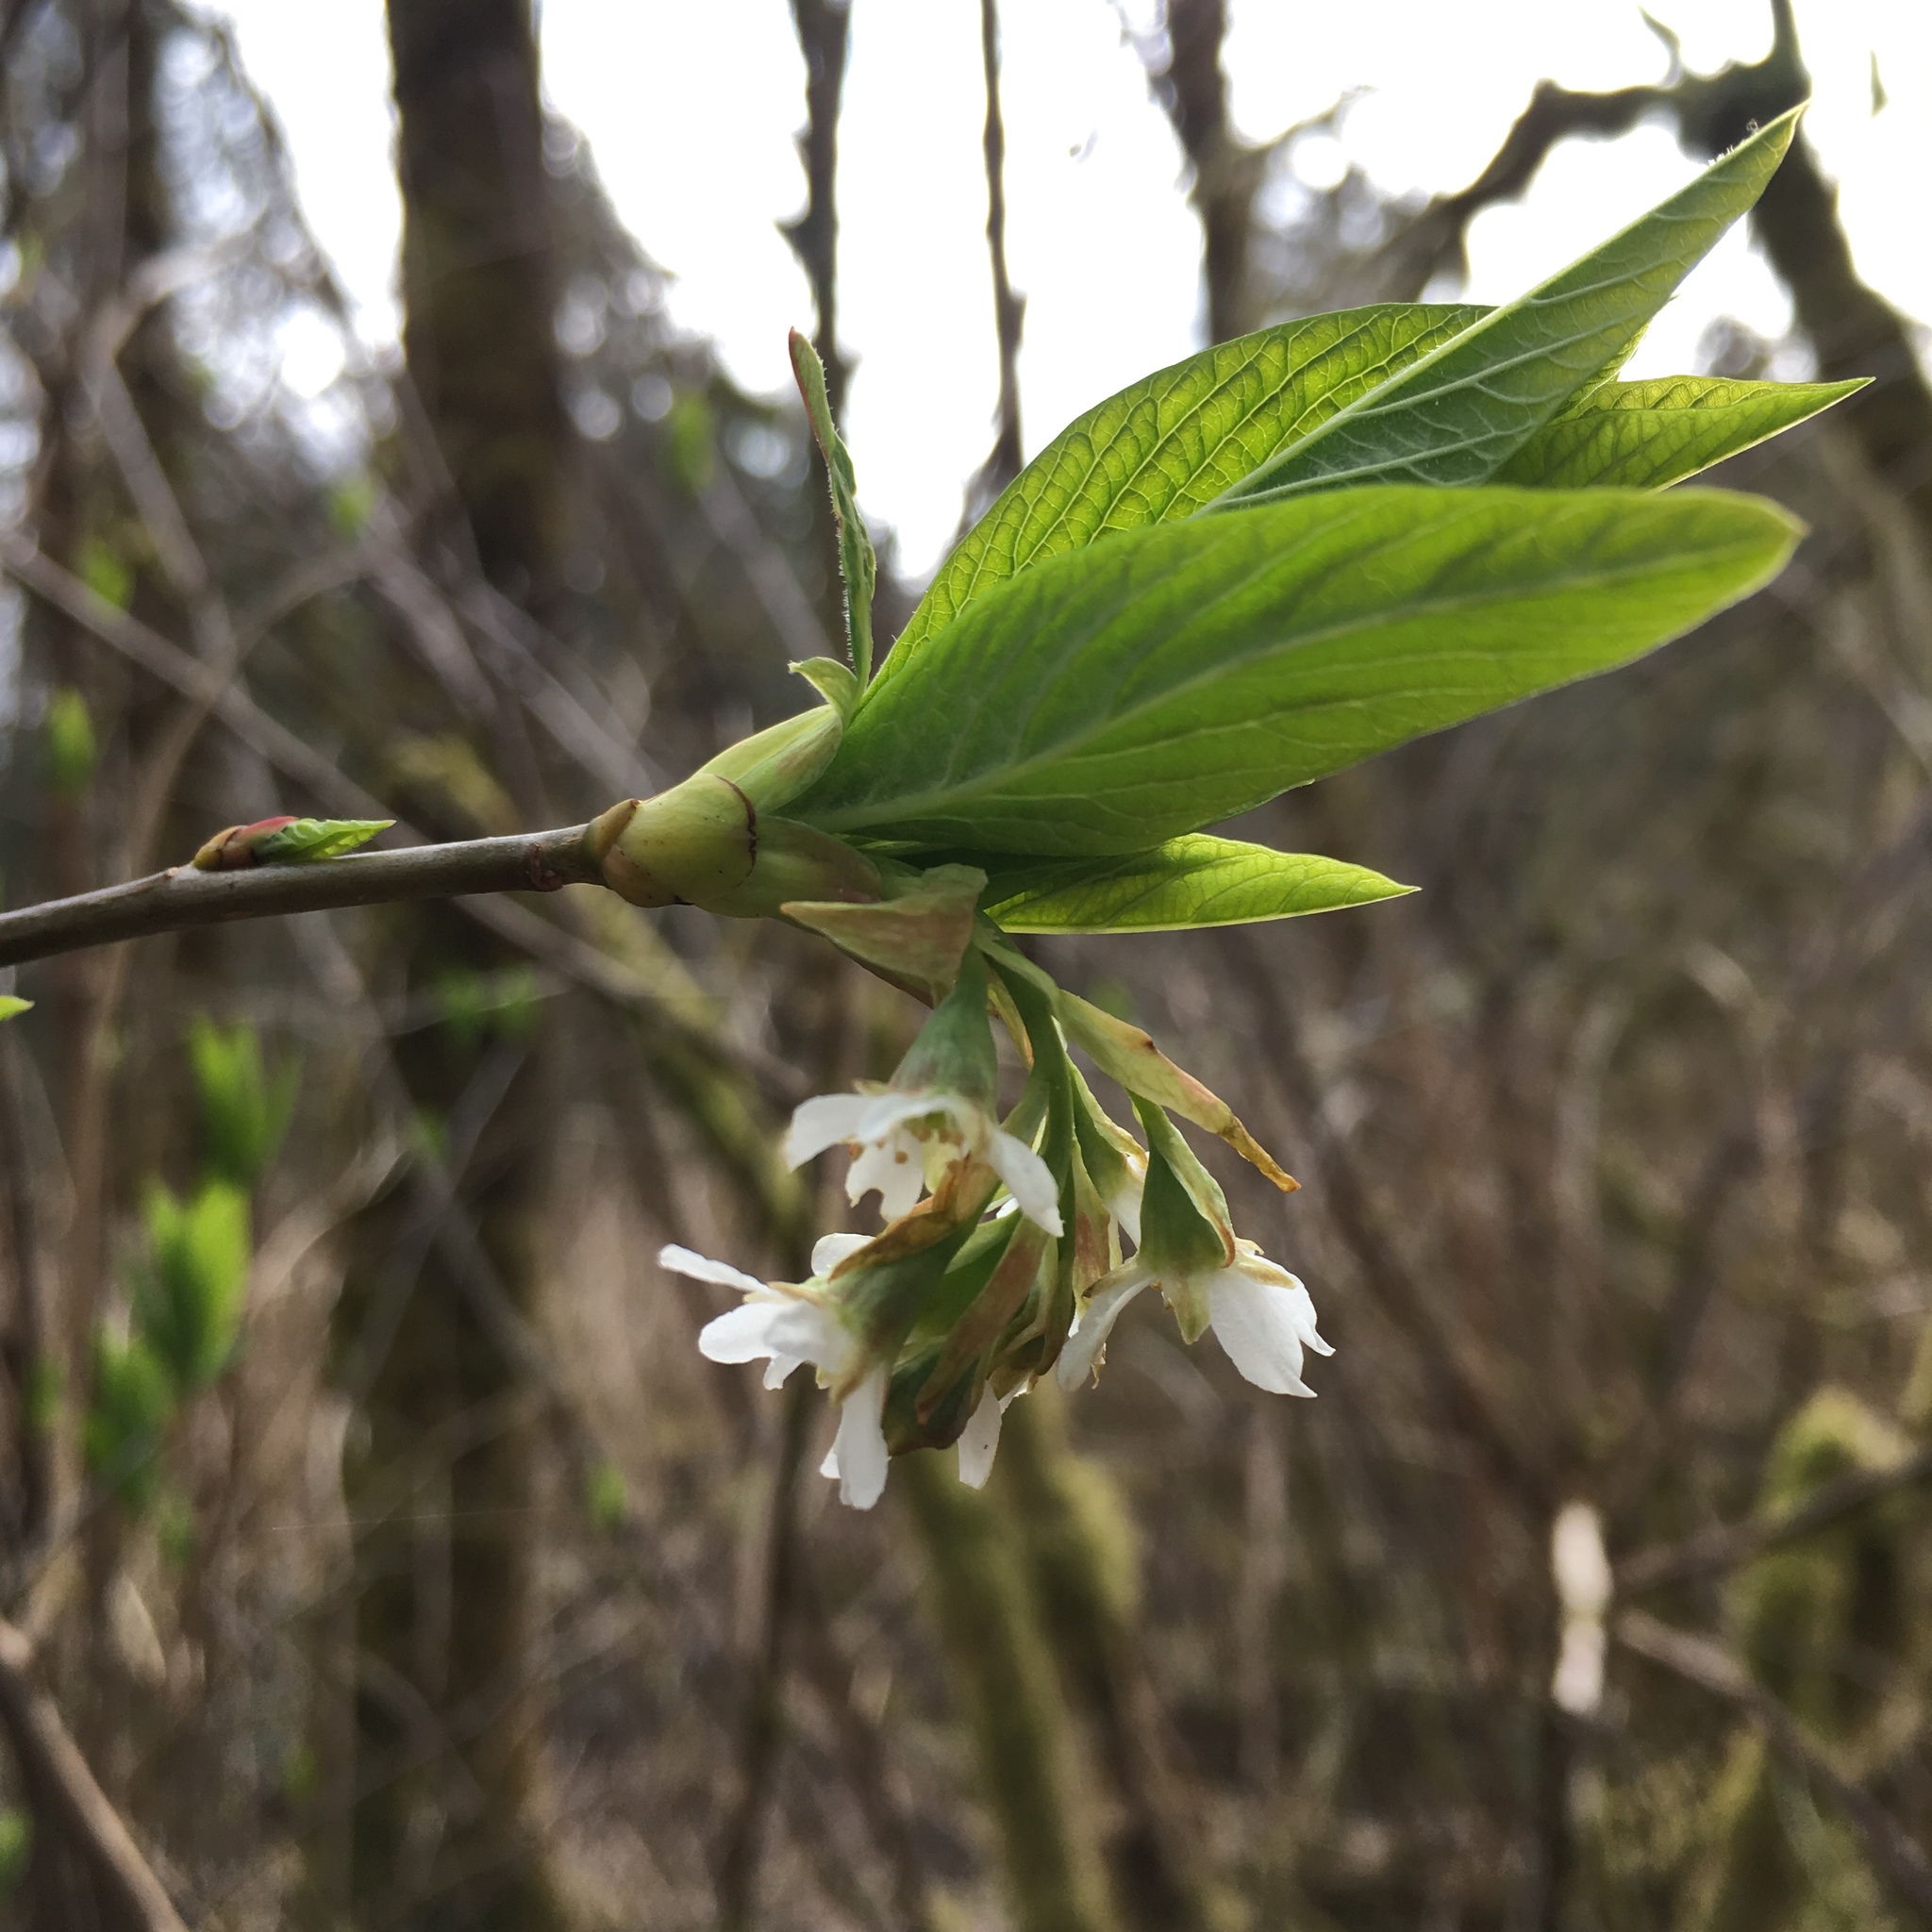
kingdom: Plantae
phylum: Tracheophyta
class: Magnoliopsida
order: Rosales
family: Rosaceae
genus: Oemleria
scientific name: Oemleria cerasiformis
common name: Osoberry
